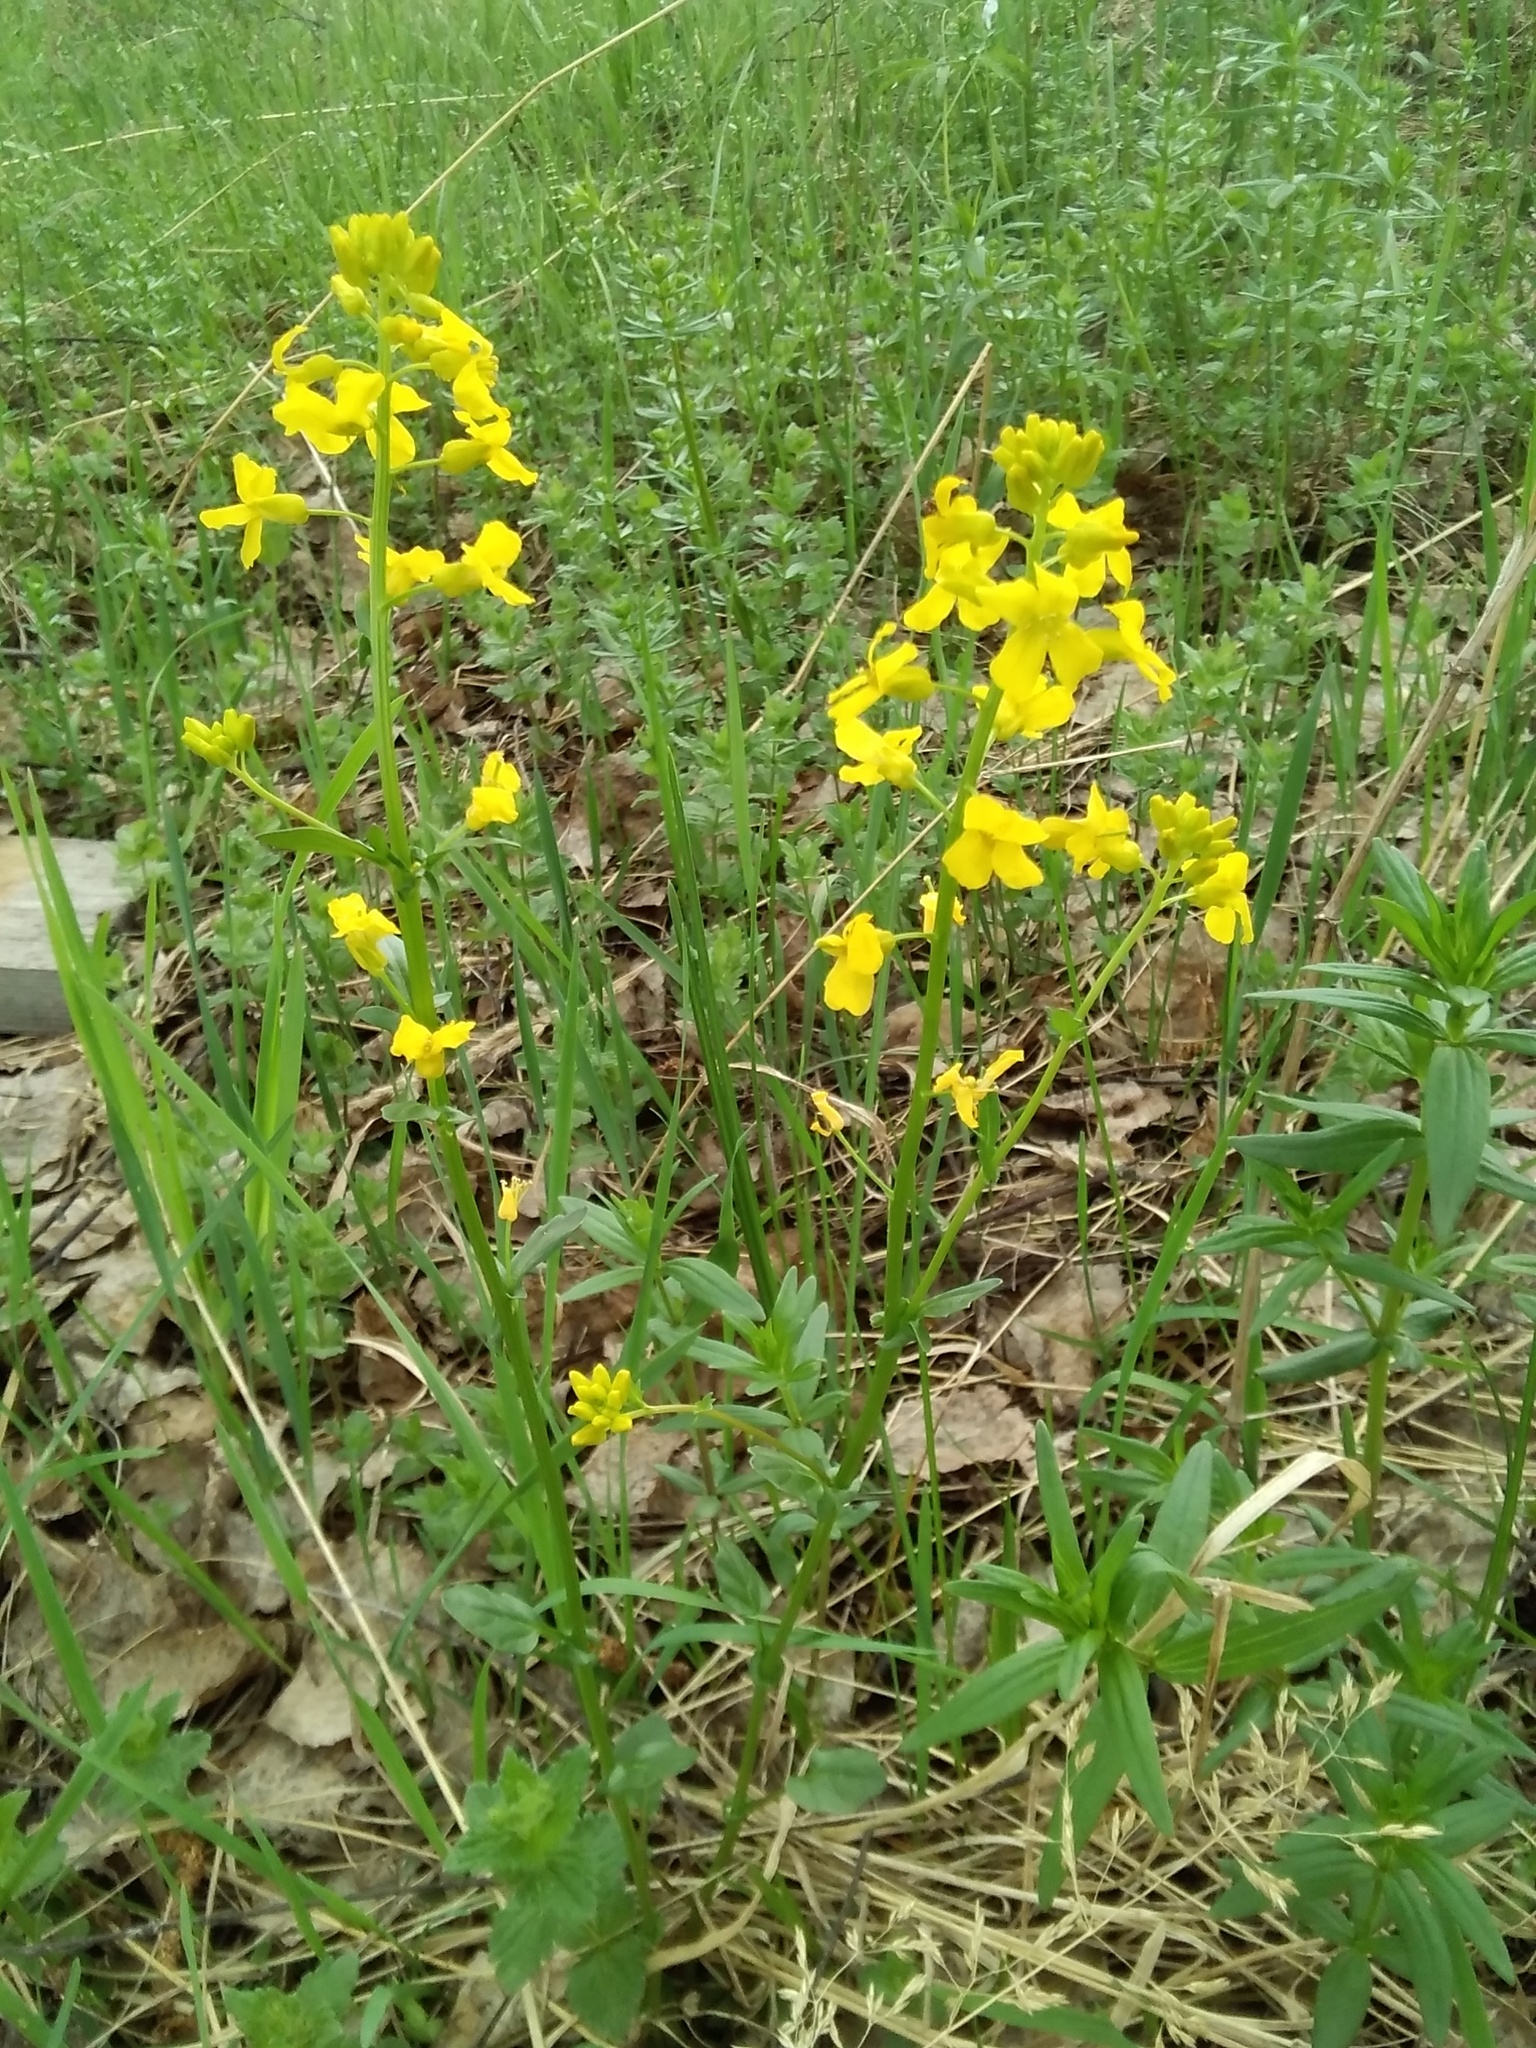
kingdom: Plantae
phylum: Tracheophyta
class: Magnoliopsida
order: Brassicales
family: Brassicaceae
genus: Barbarea
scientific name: Barbarea vulgaris
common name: Cressy-greens
